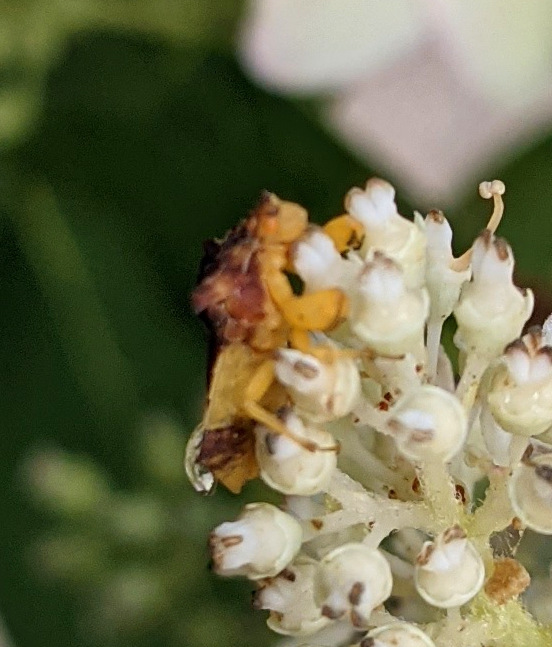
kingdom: Animalia
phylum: Arthropoda
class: Insecta
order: Hemiptera
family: Reduviidae
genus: Phymata
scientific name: Phymata pennsylvanica
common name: Pennsylvania ambush bug
